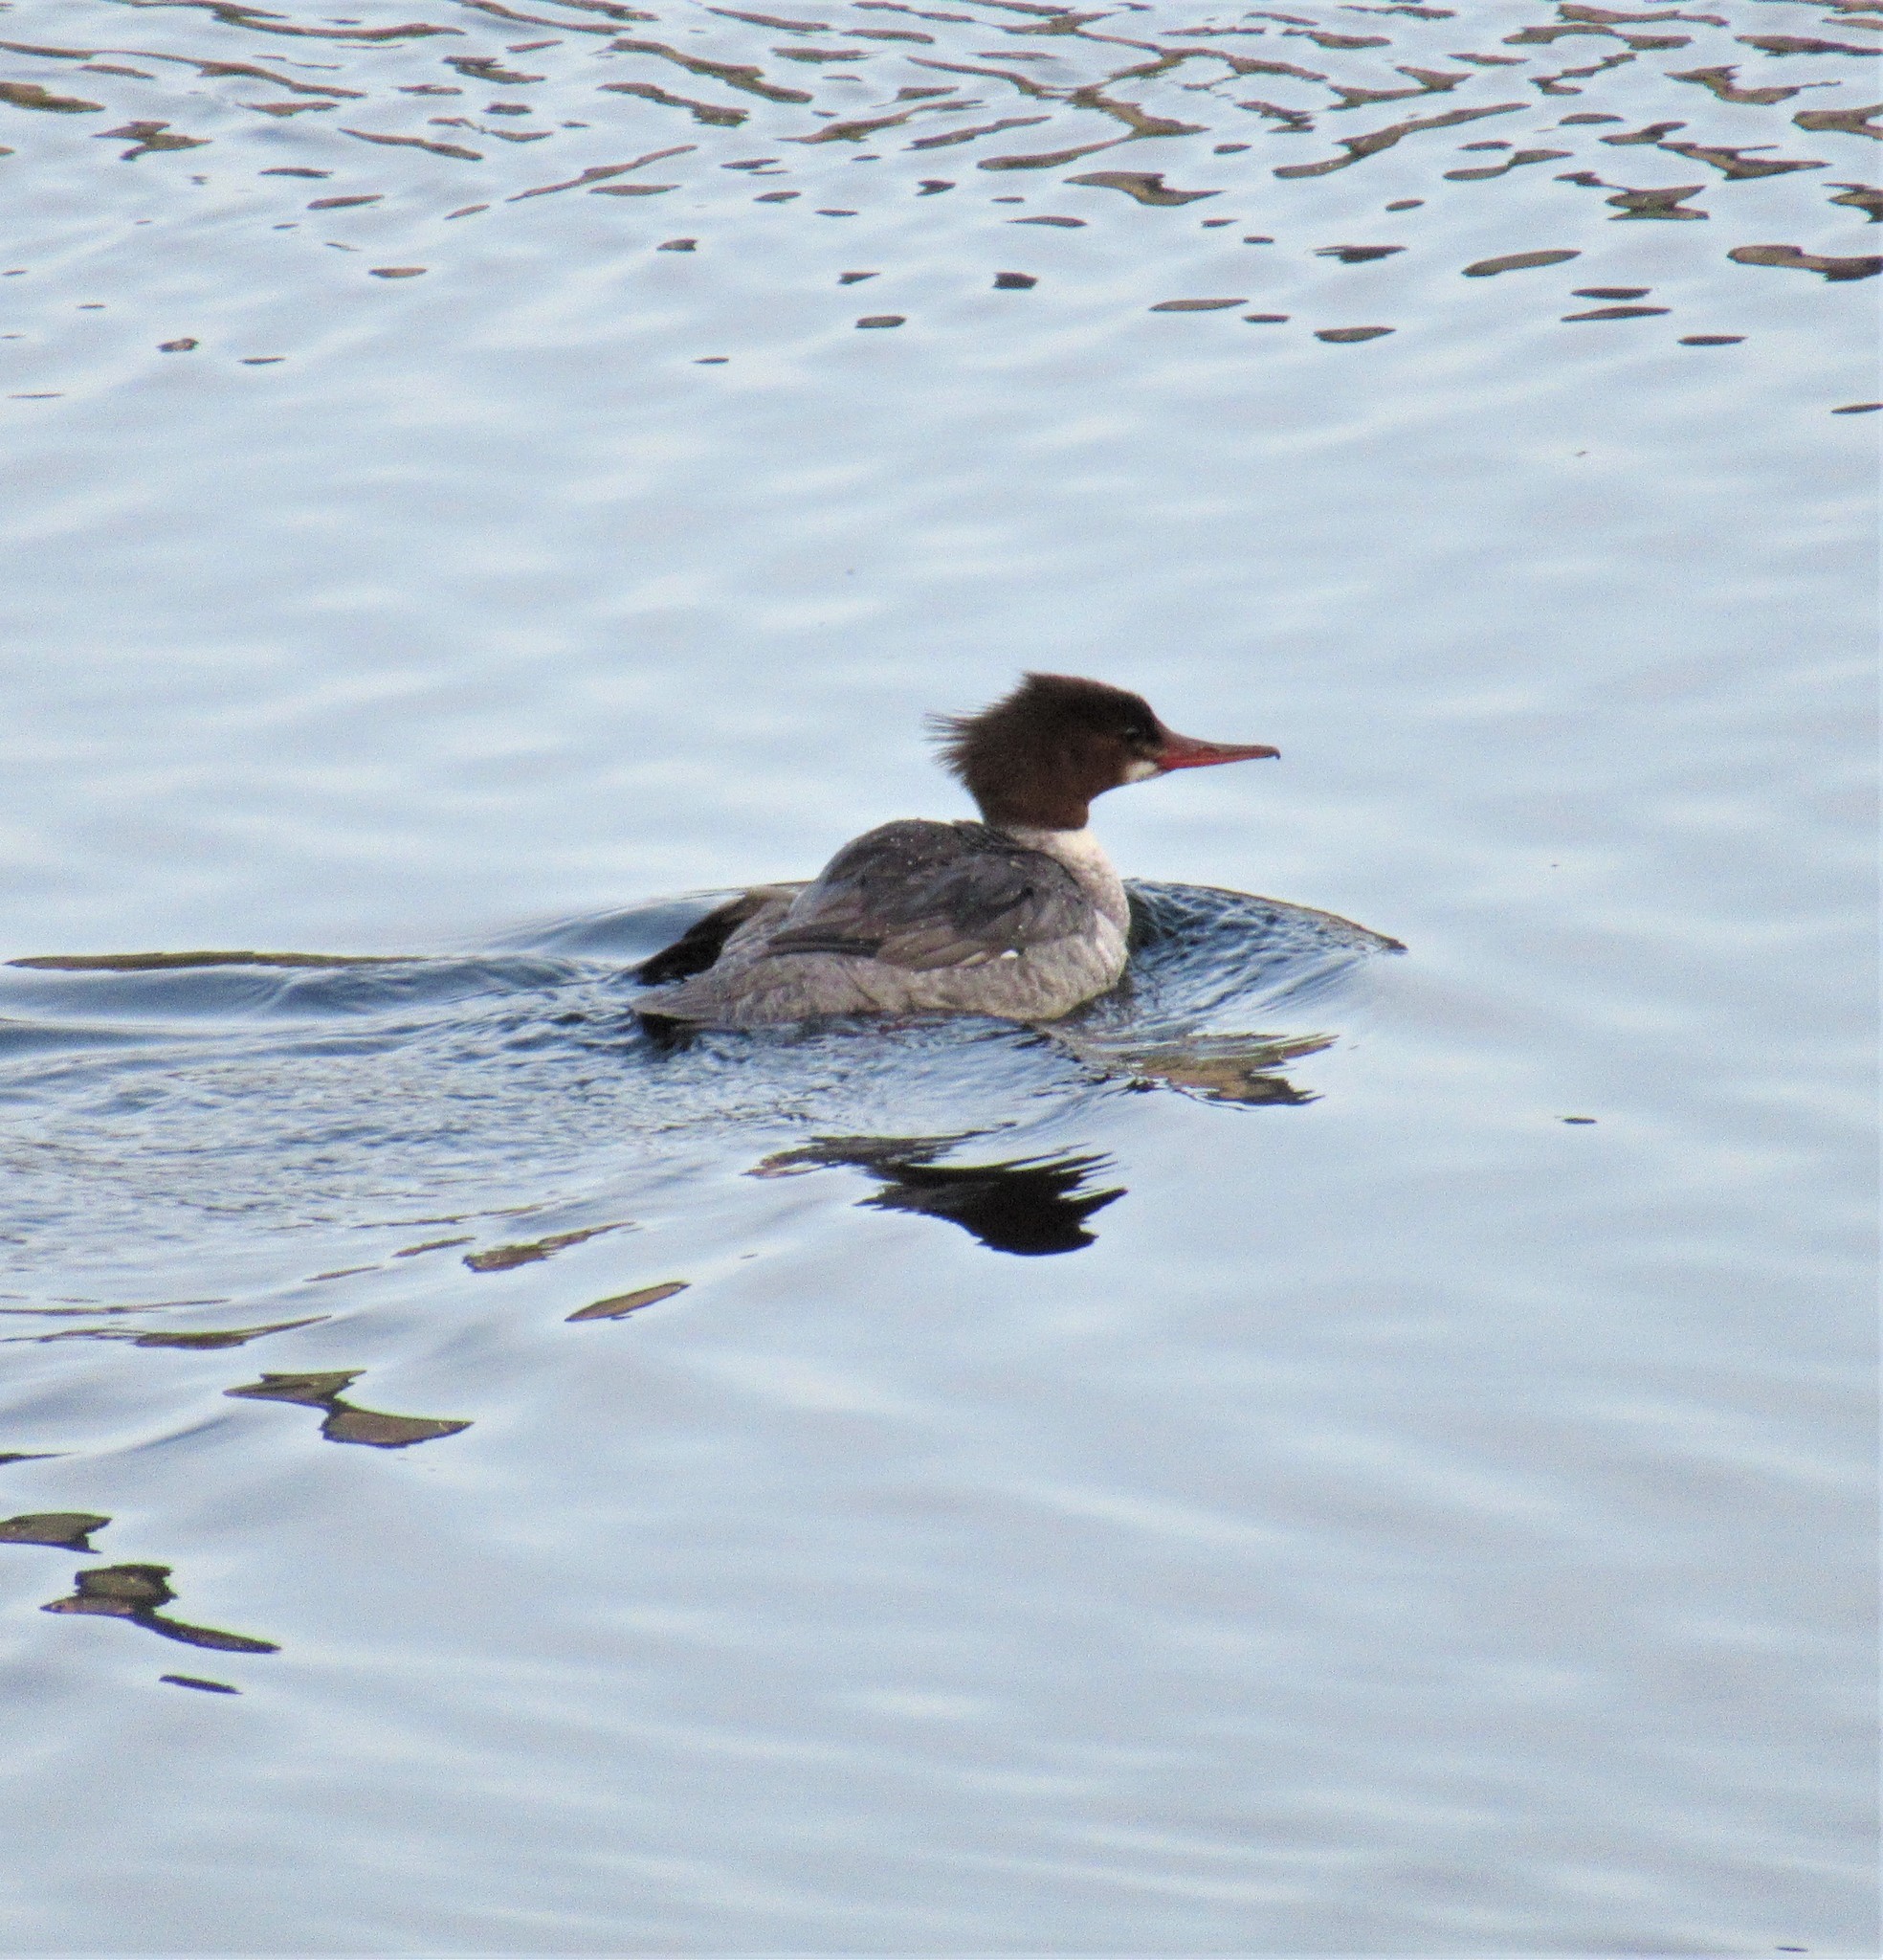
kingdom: Animalia
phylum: Chordata
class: Aves
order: Anseriformes
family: Anatidae
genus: Mergus
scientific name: Mergus merganser
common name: Common merganser
